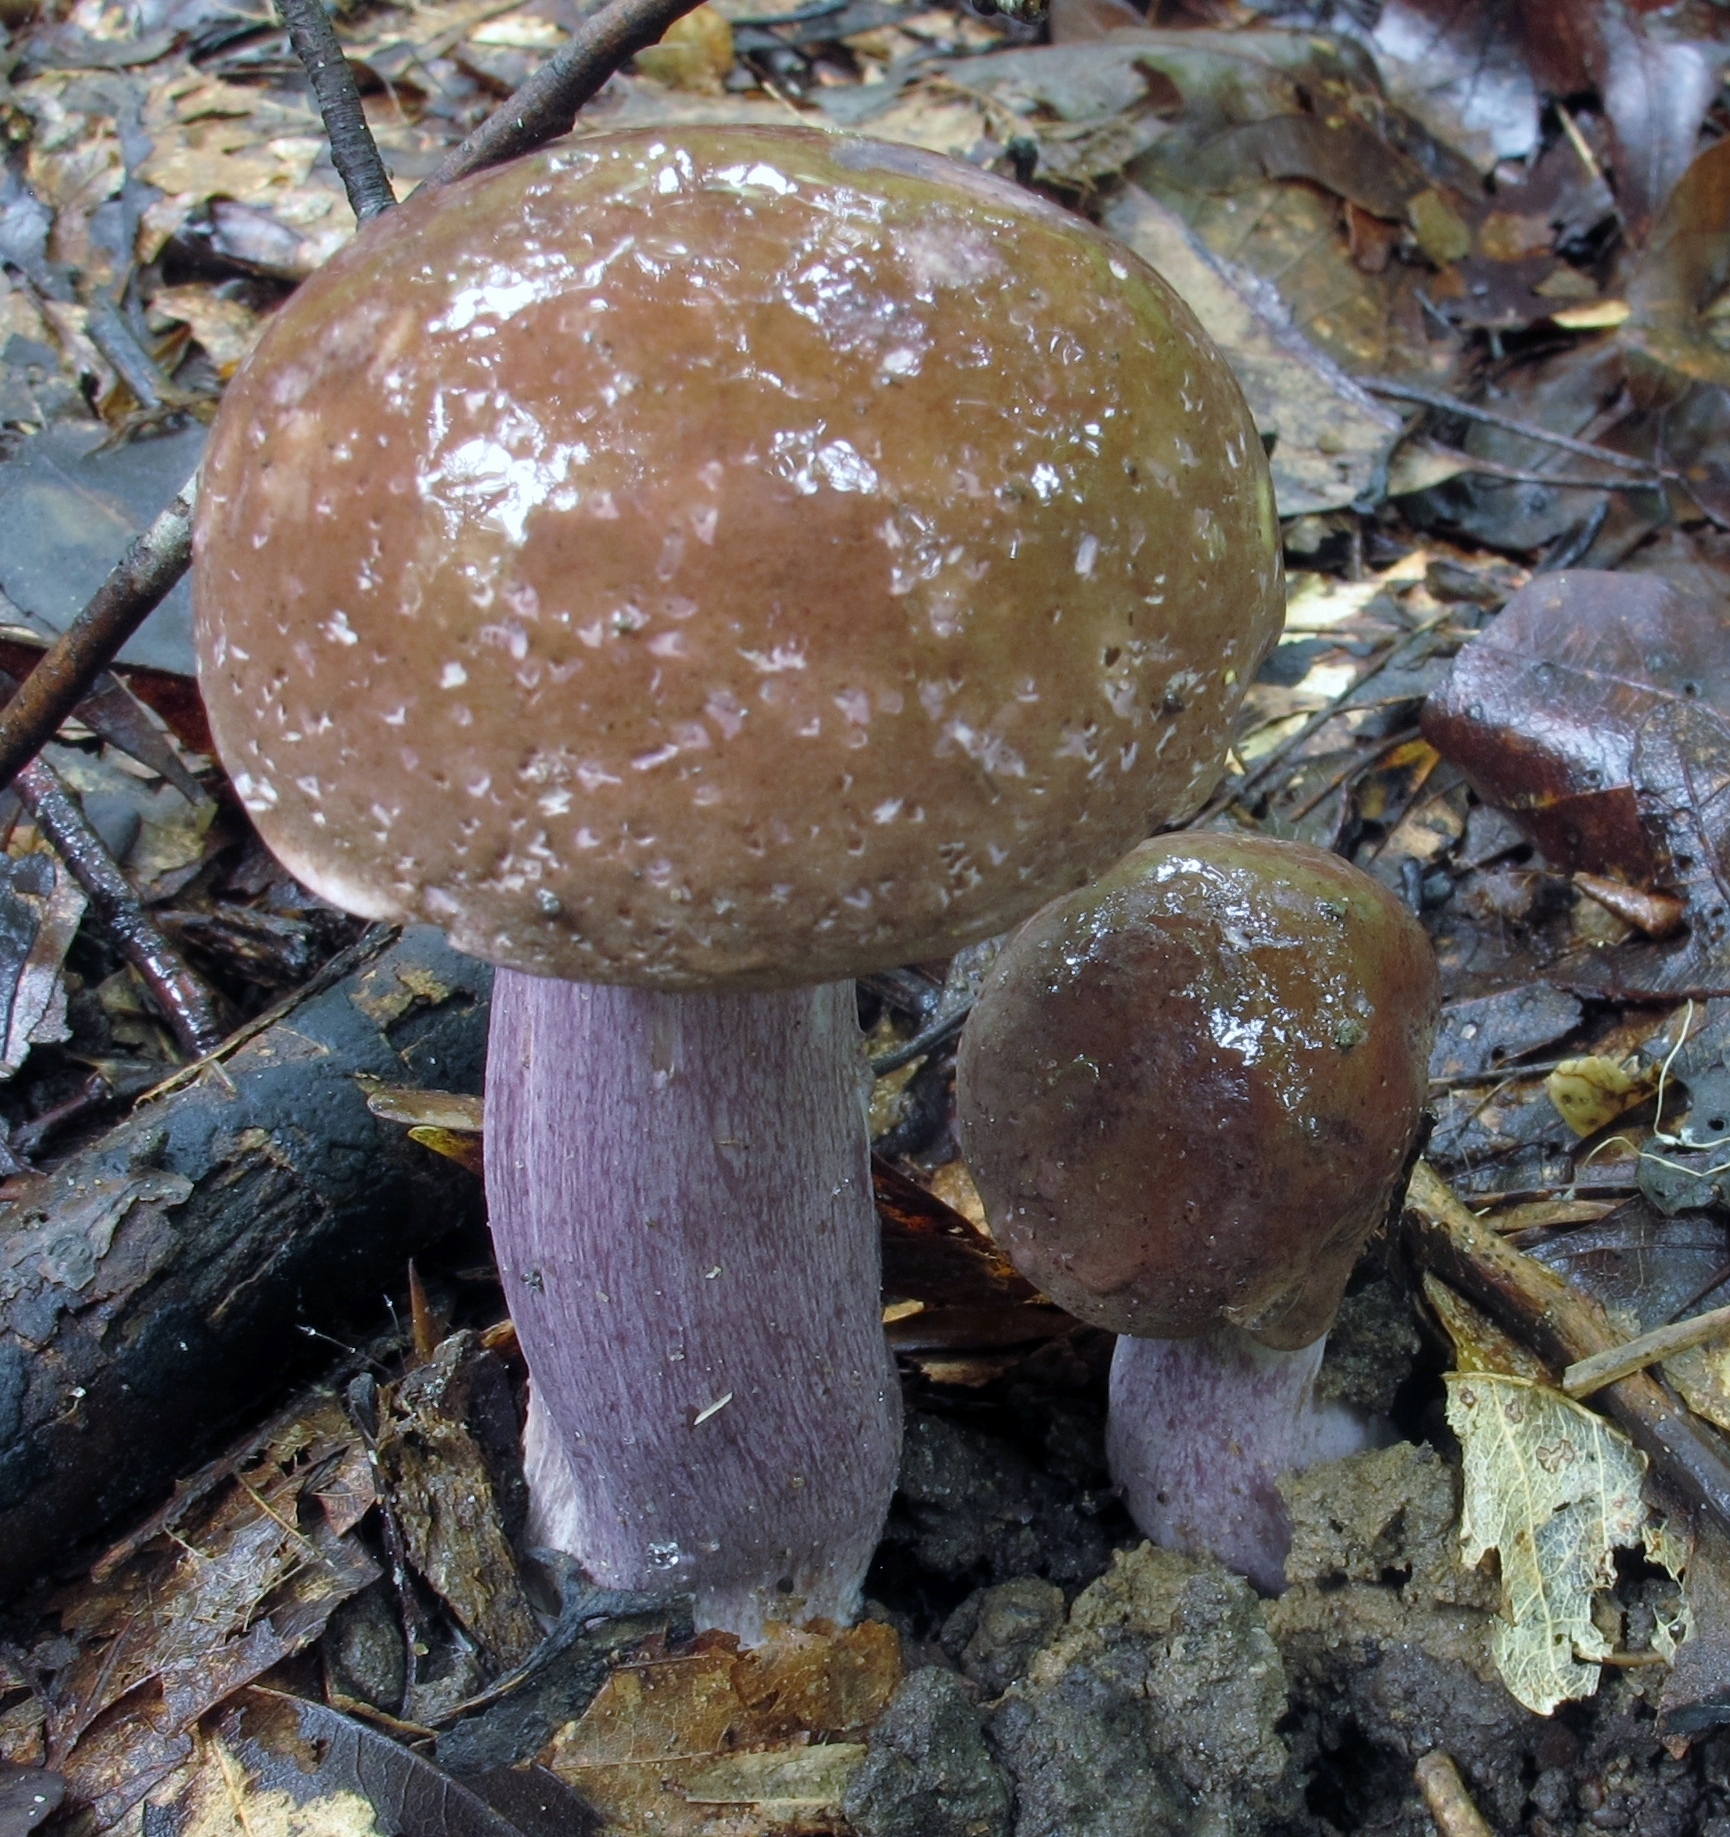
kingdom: Fungi
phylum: Basidiomycota
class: Agaricomycetes
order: Boletales
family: Boletaceae
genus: Tylopilus
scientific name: Tylopilus plumbeoviolaceus
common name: Violet gray bolete
